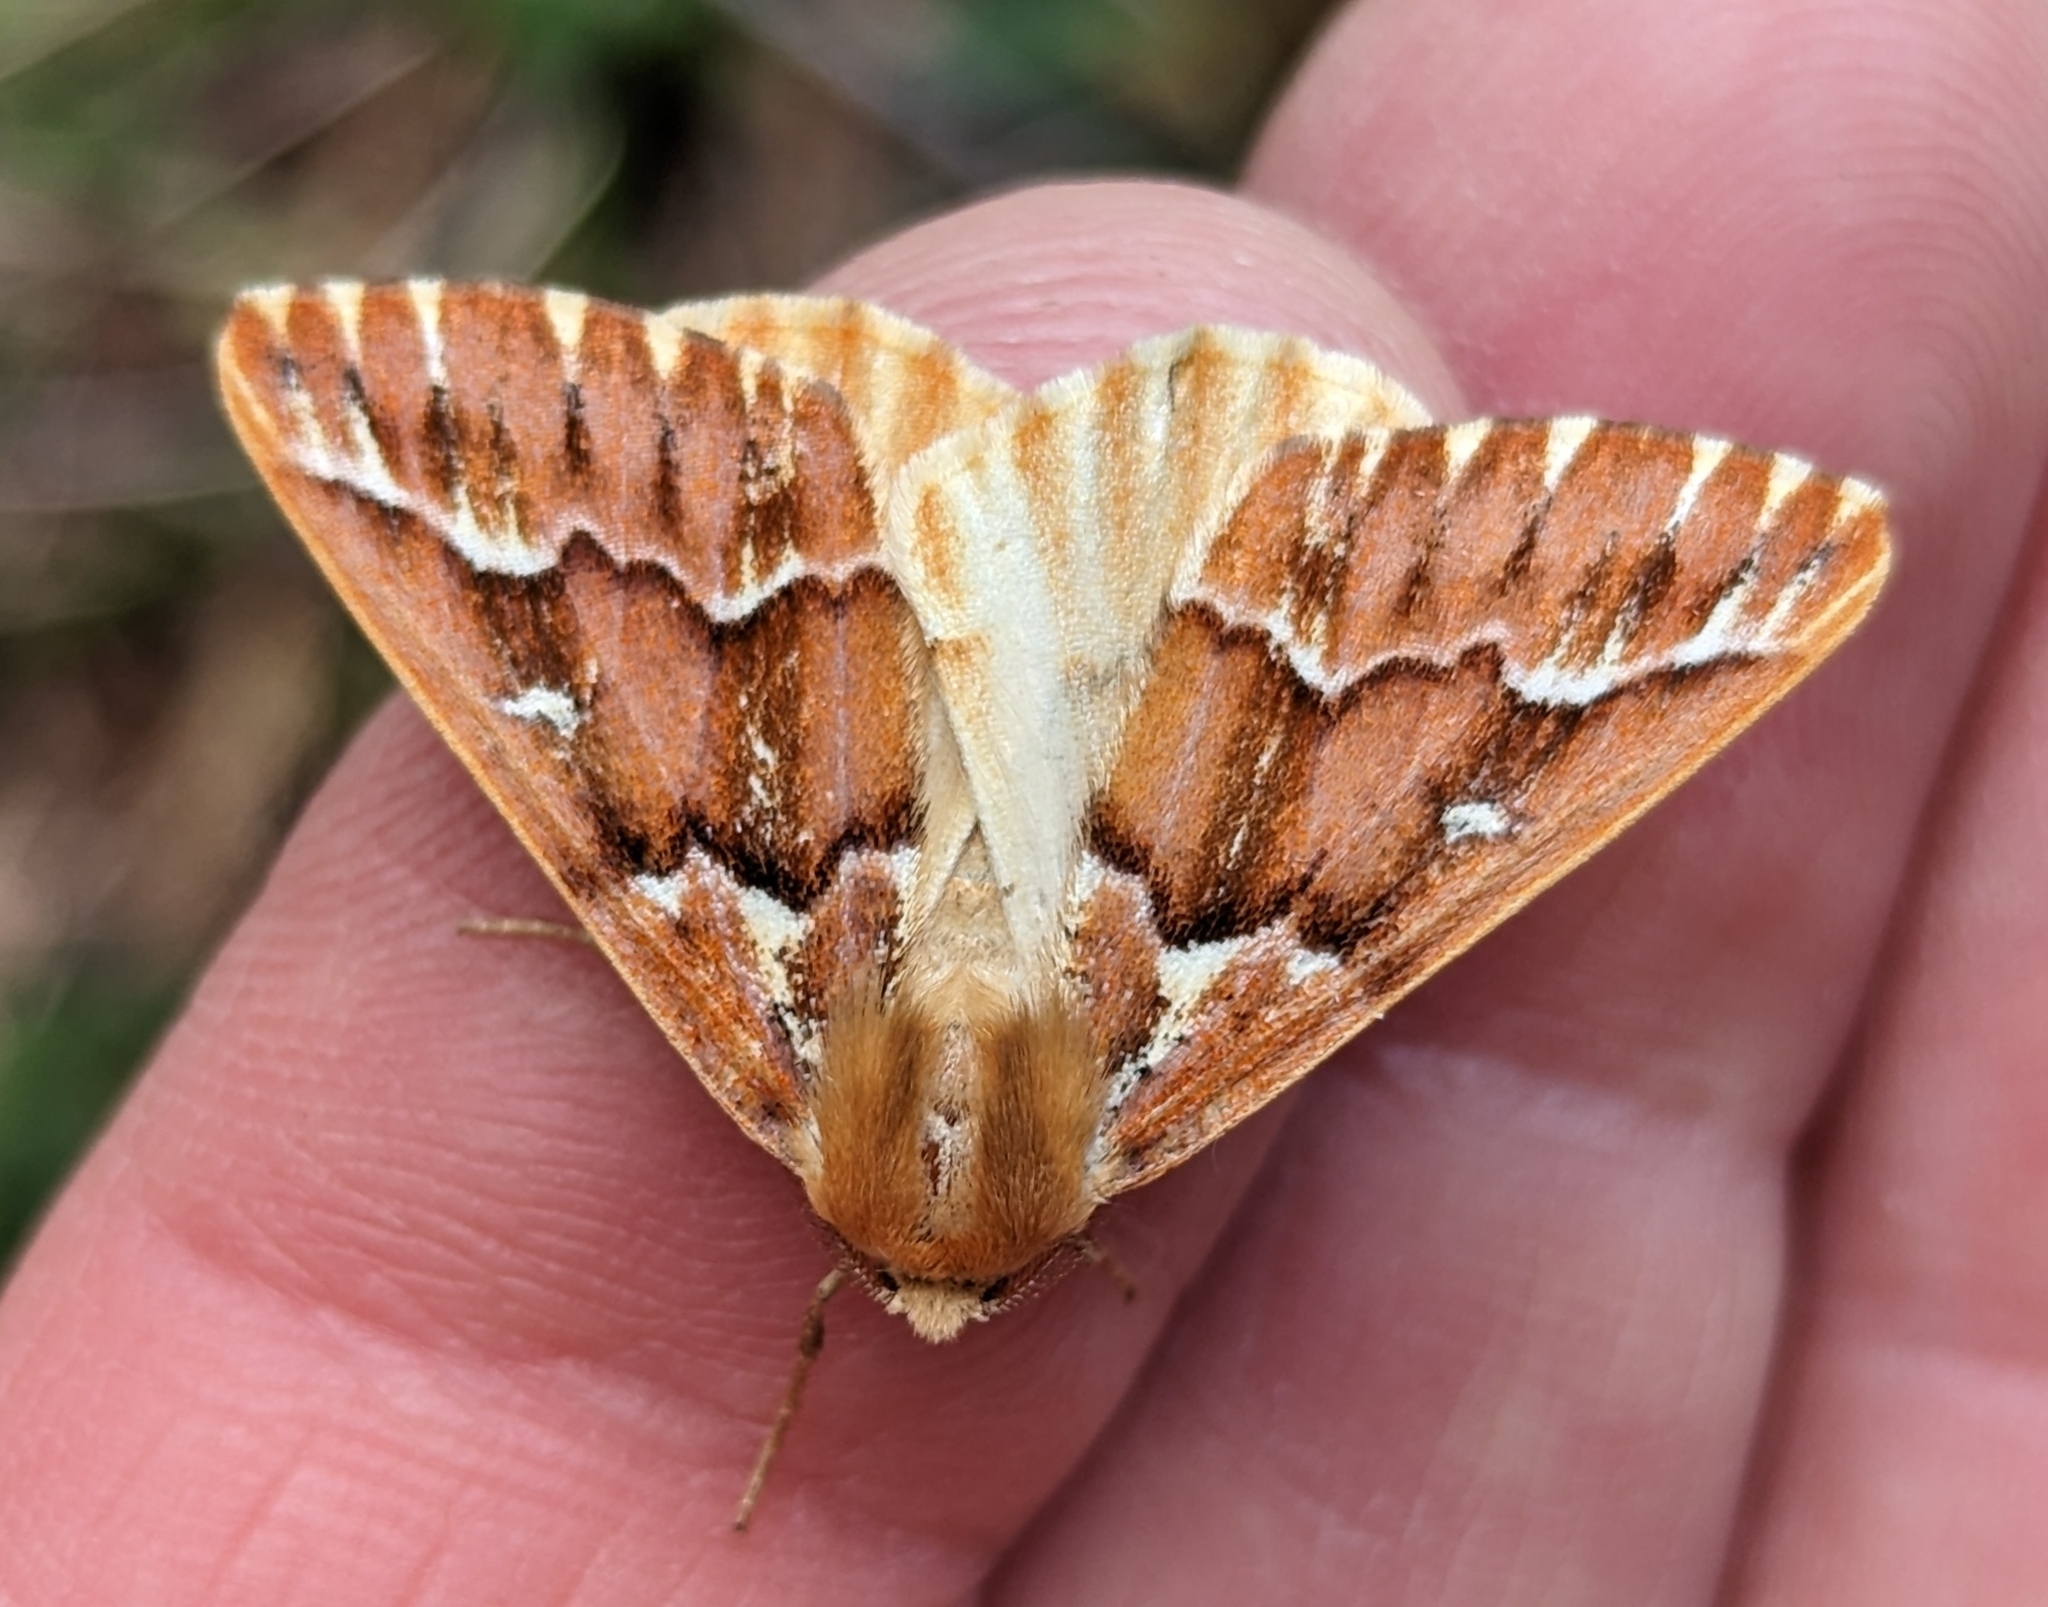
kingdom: Animalia
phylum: Arthropoda
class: Insecta
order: Lepidoptera
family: Geometridae
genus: Caripeta
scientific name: Caripeta aequaliaria
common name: Red girdle moth
